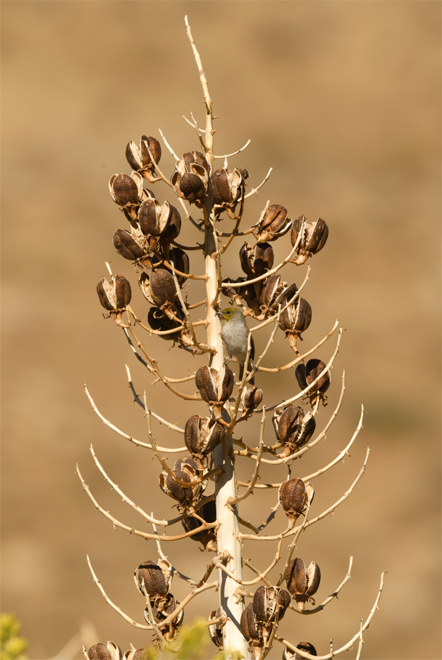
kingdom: Plantae
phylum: Tracheophyta
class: Liliopsida
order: Asparagales
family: Asparagaceae
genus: Hesperoyucca
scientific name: Hesperoyucca whipplei
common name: Our lord's-candle
